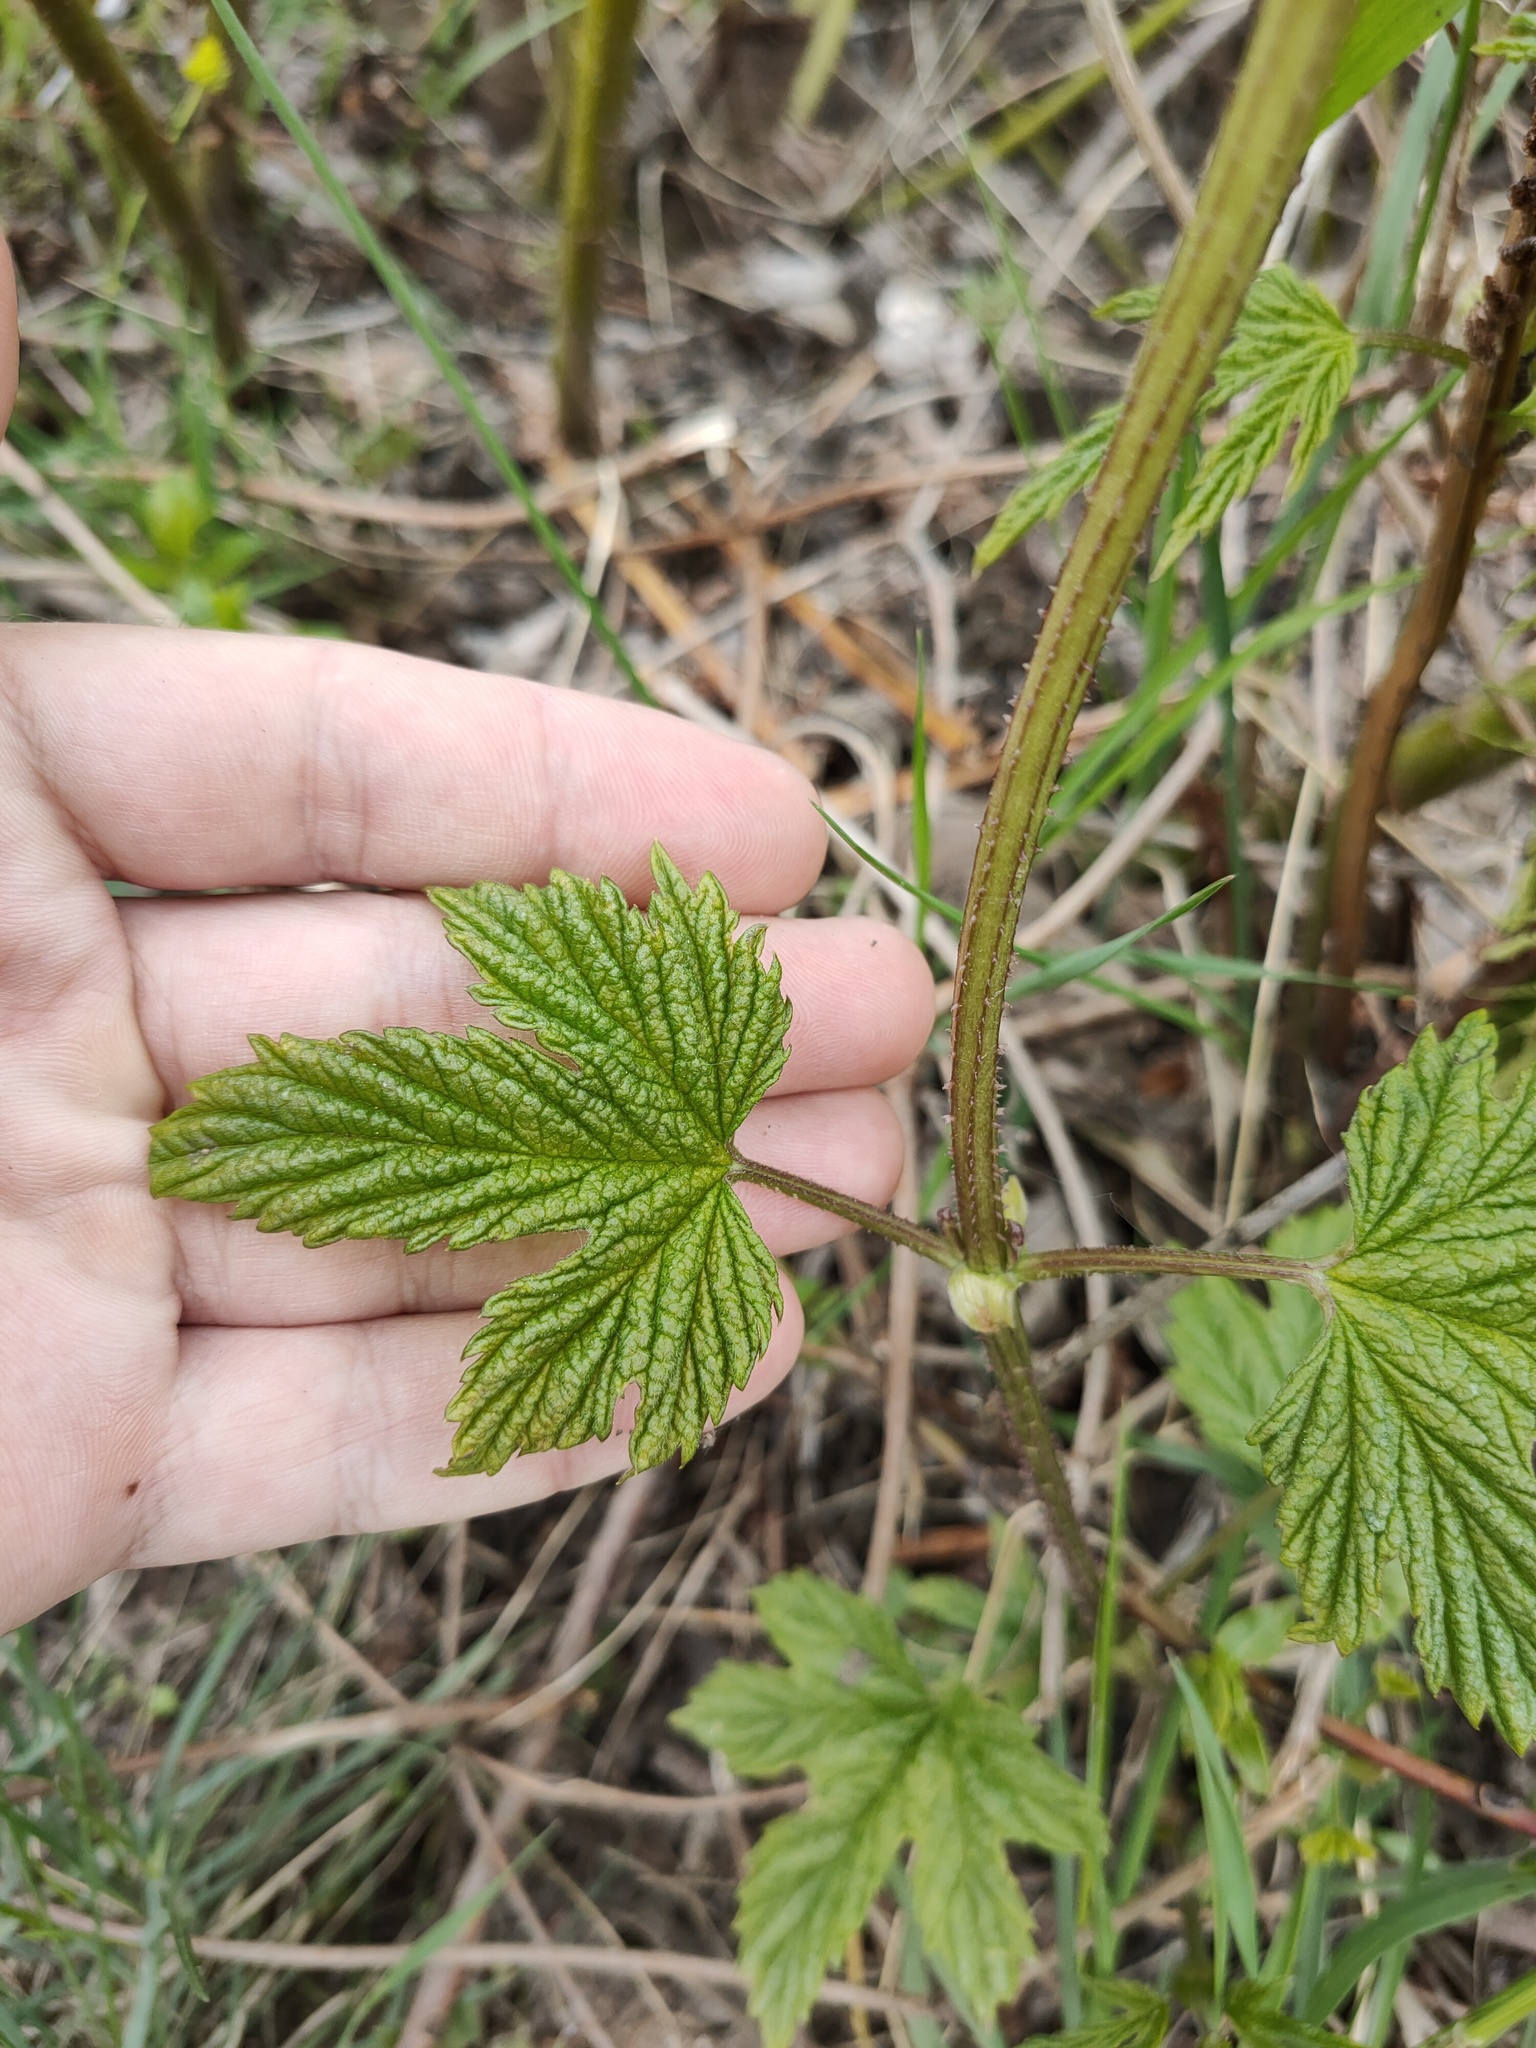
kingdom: Plantae
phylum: Tracheophyta
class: Magnoliopsida
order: Rosales
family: Cannabaceae
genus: Humulus
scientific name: Humulus lupulus
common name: Hop
